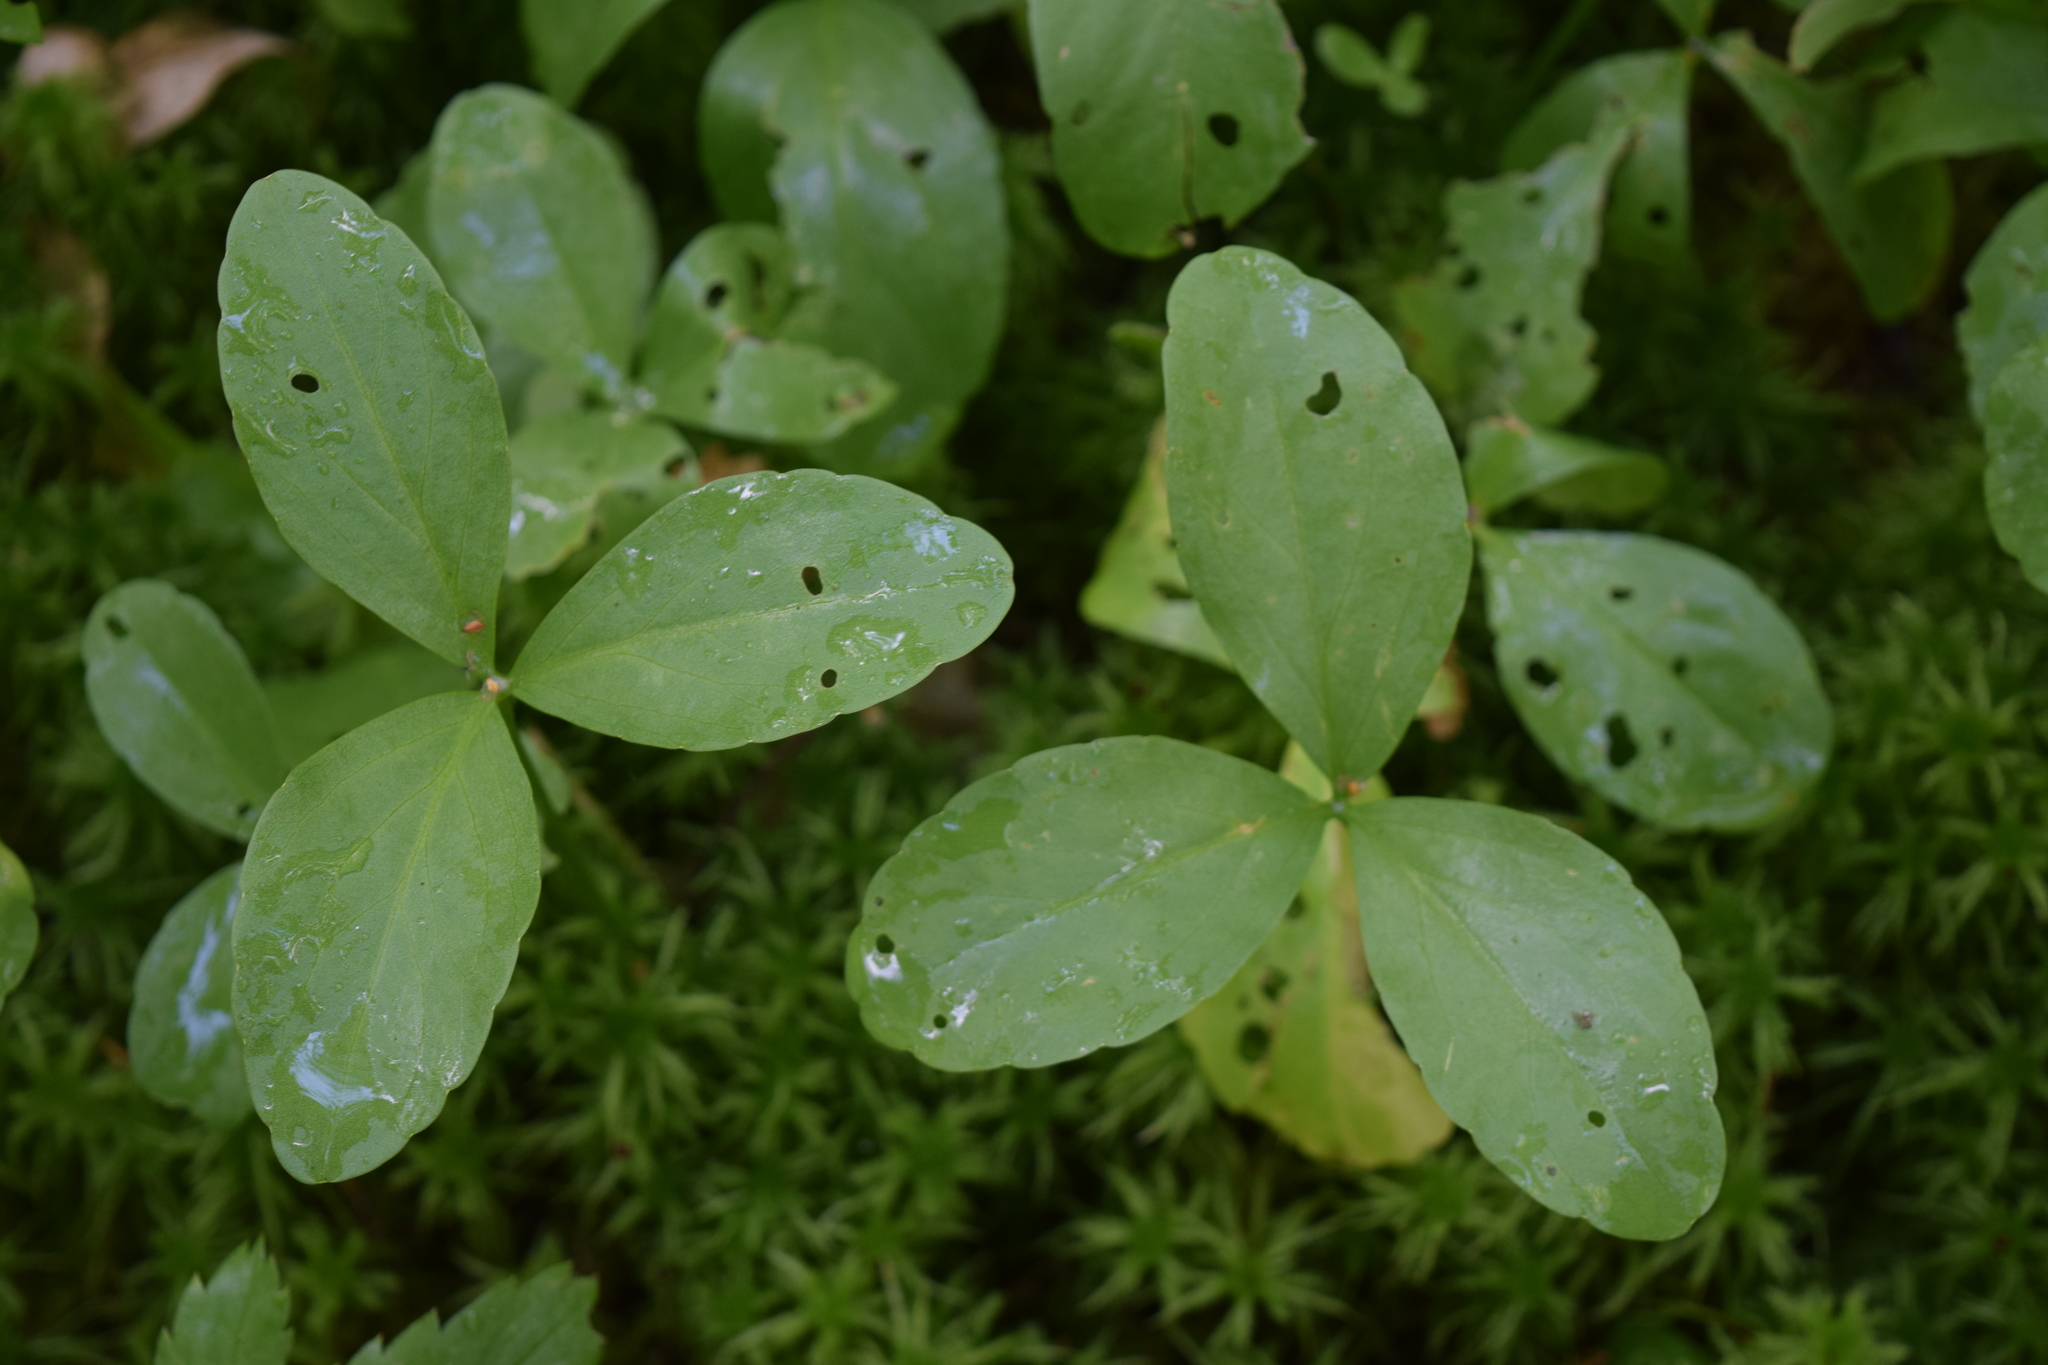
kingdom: Plantae
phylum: Tracheophyta
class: Magnoliopsida
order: Asterales
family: Menyanthaceae
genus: Menyanthes
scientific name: Menyanthes trifoliata
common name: Bogbean
